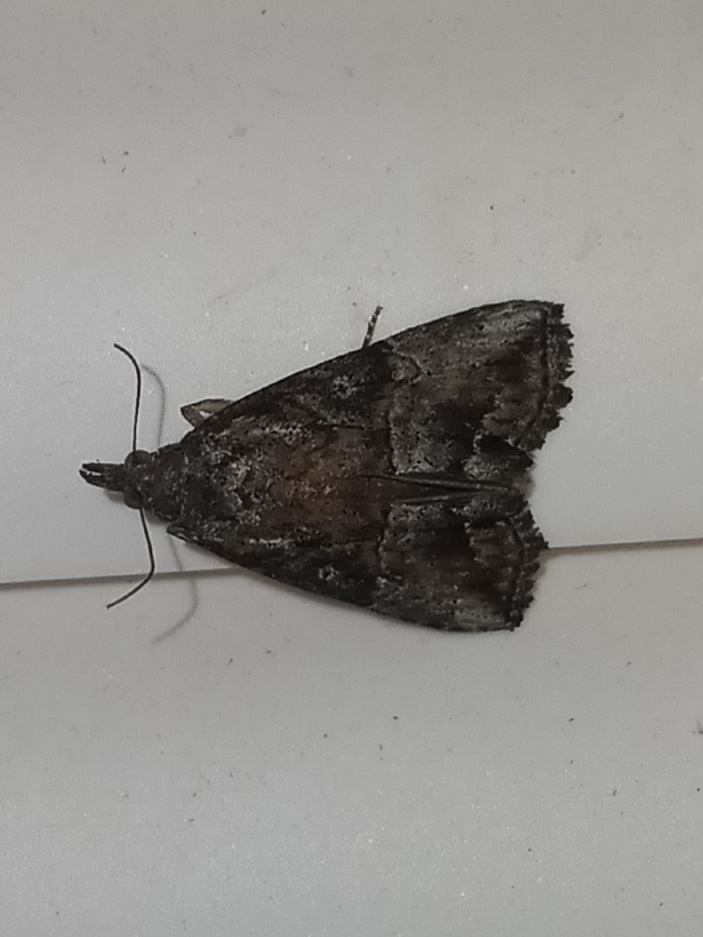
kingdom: Animalia
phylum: Arthropoda
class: Insecta
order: Lepidoptera
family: Erebidae
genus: Hypena
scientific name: Hypena scabra
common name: Green cloverworm
